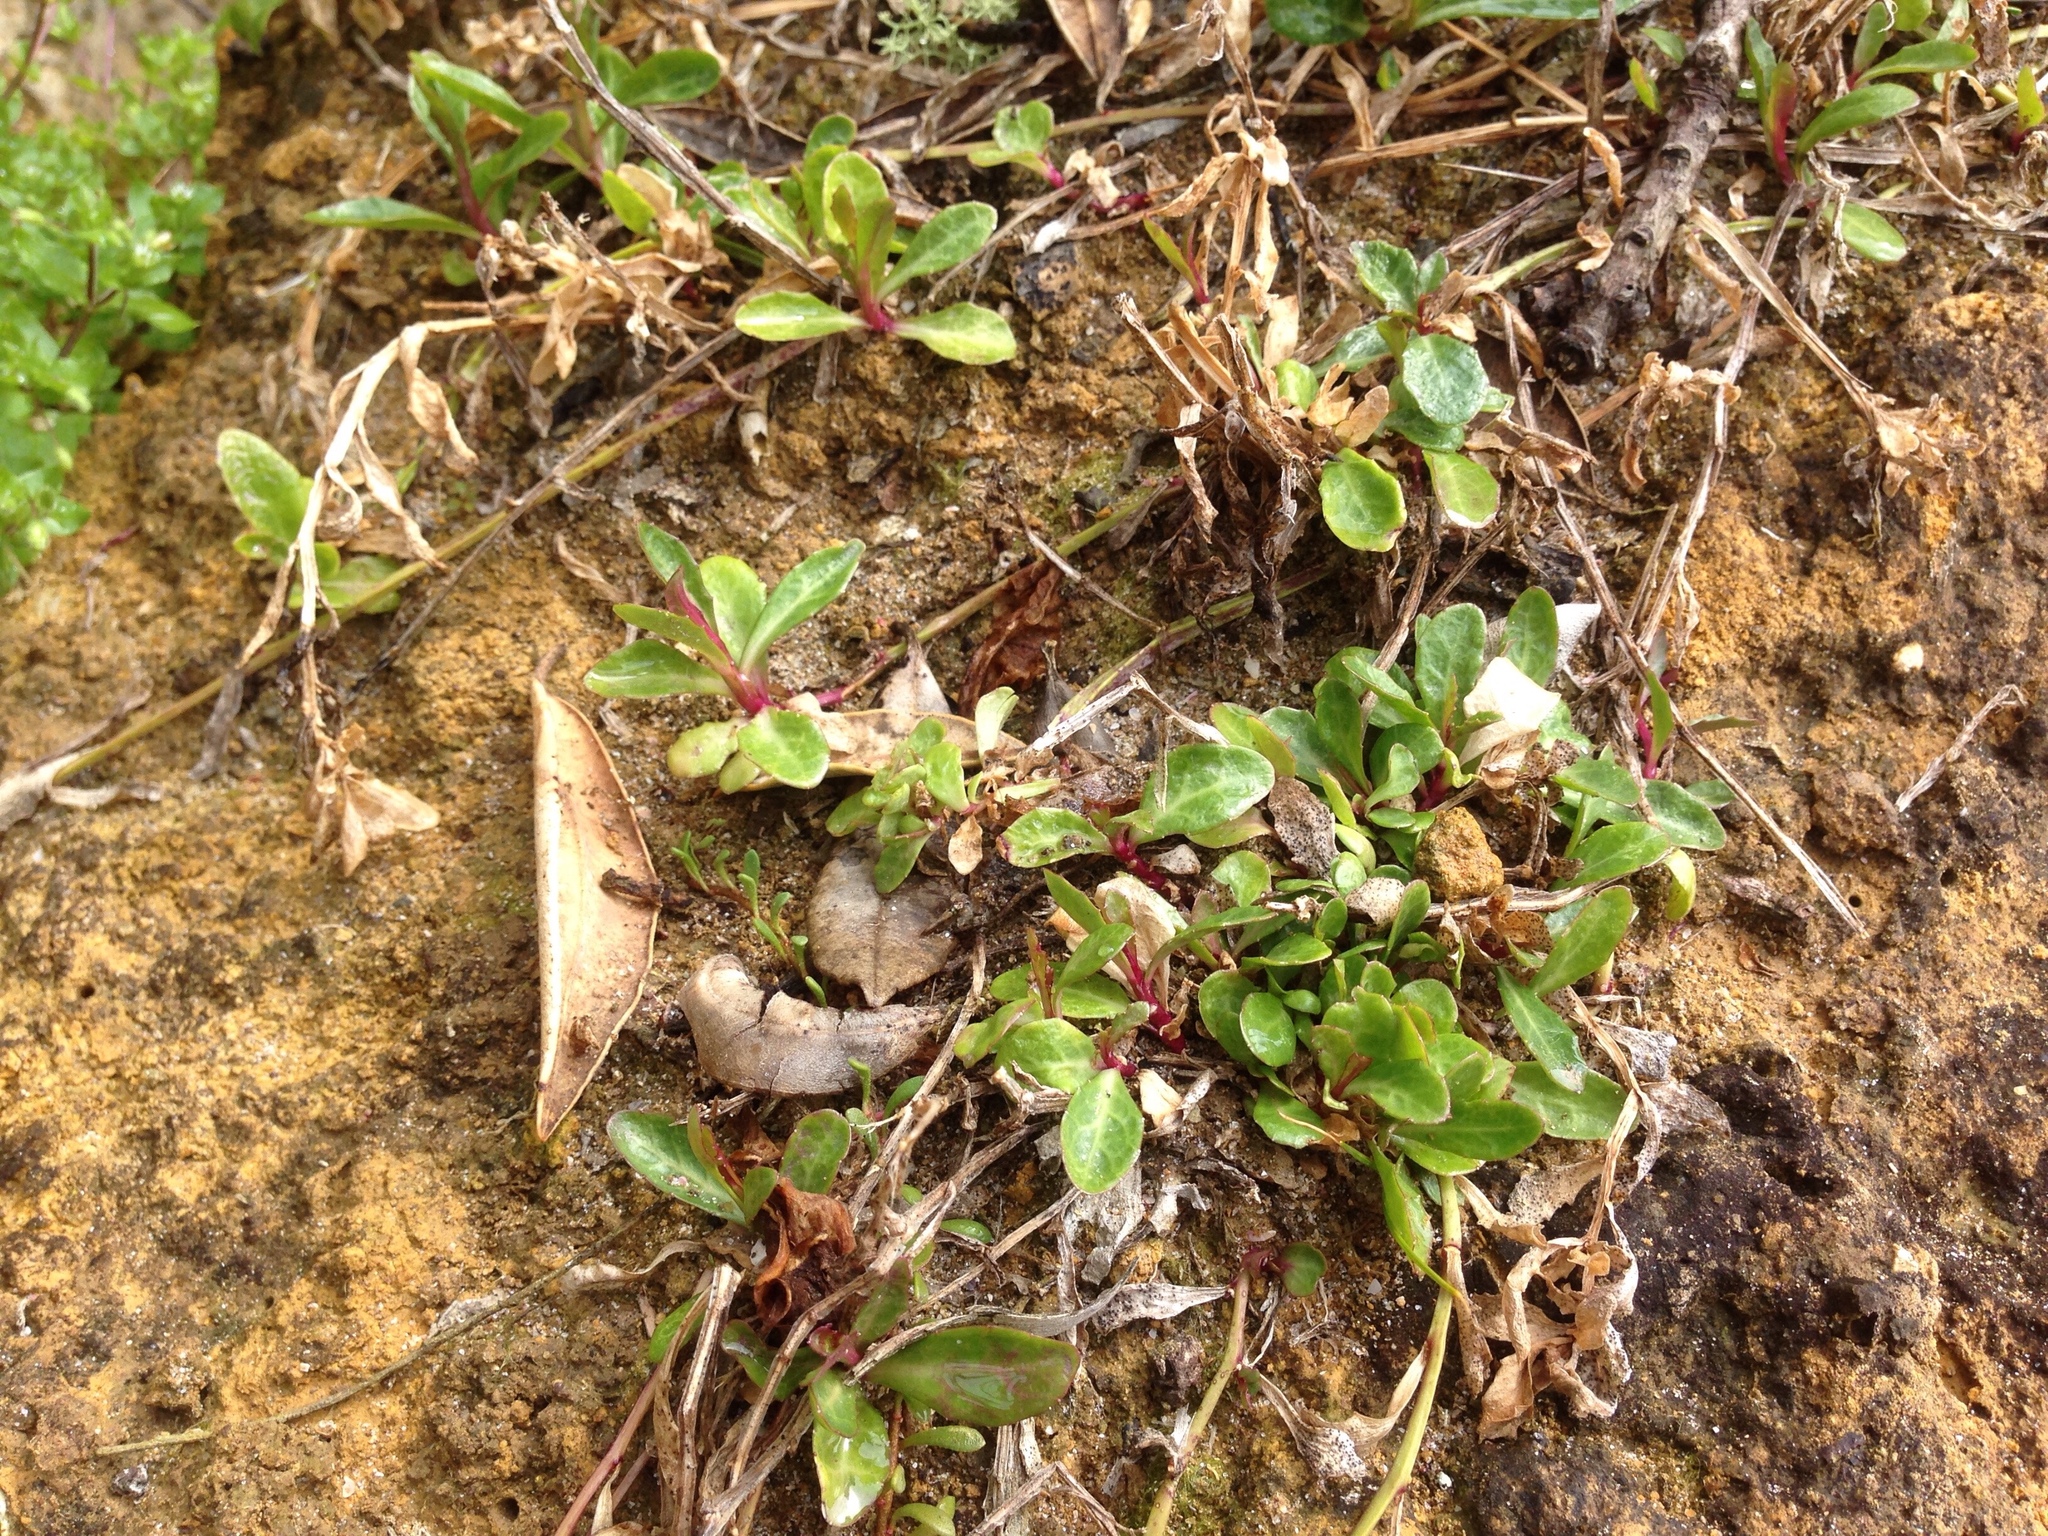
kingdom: Plantae
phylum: Tracheophyta
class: Magnoliopsida
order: Asterales
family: Campanulaceae
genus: Lobelia
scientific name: Lobelia anceps
